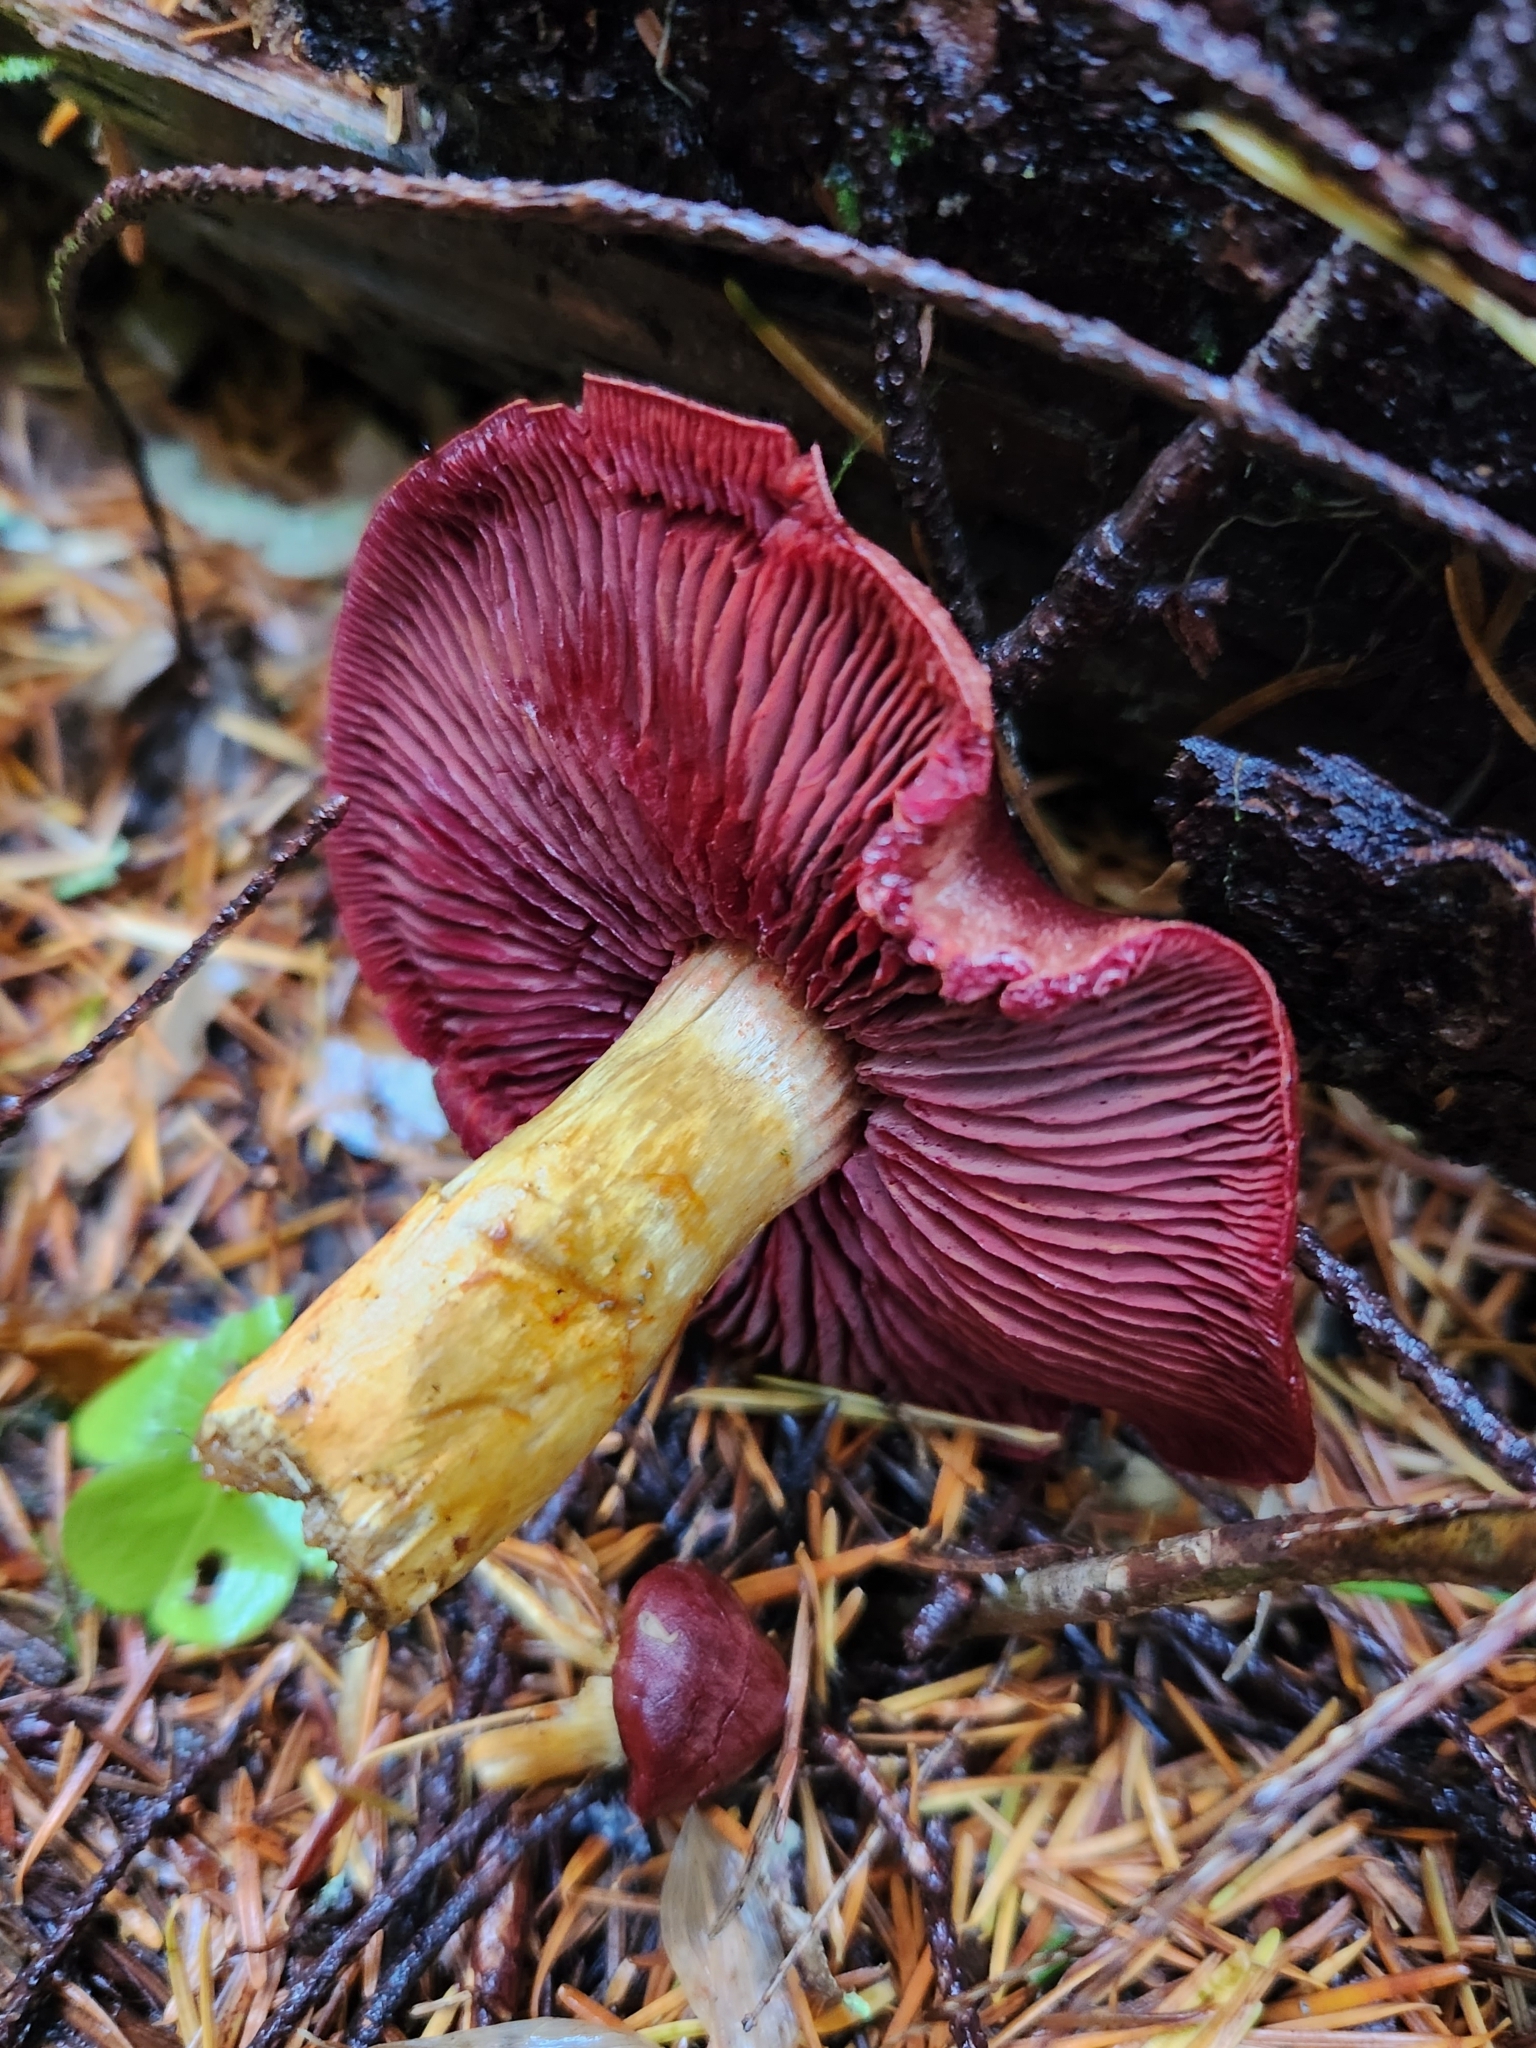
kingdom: Fungi
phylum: Basidiomycota
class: Agaricomycetes
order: Agaricales
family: Cortinariaceae
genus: Cortinarius
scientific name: Cortinarius smithii
